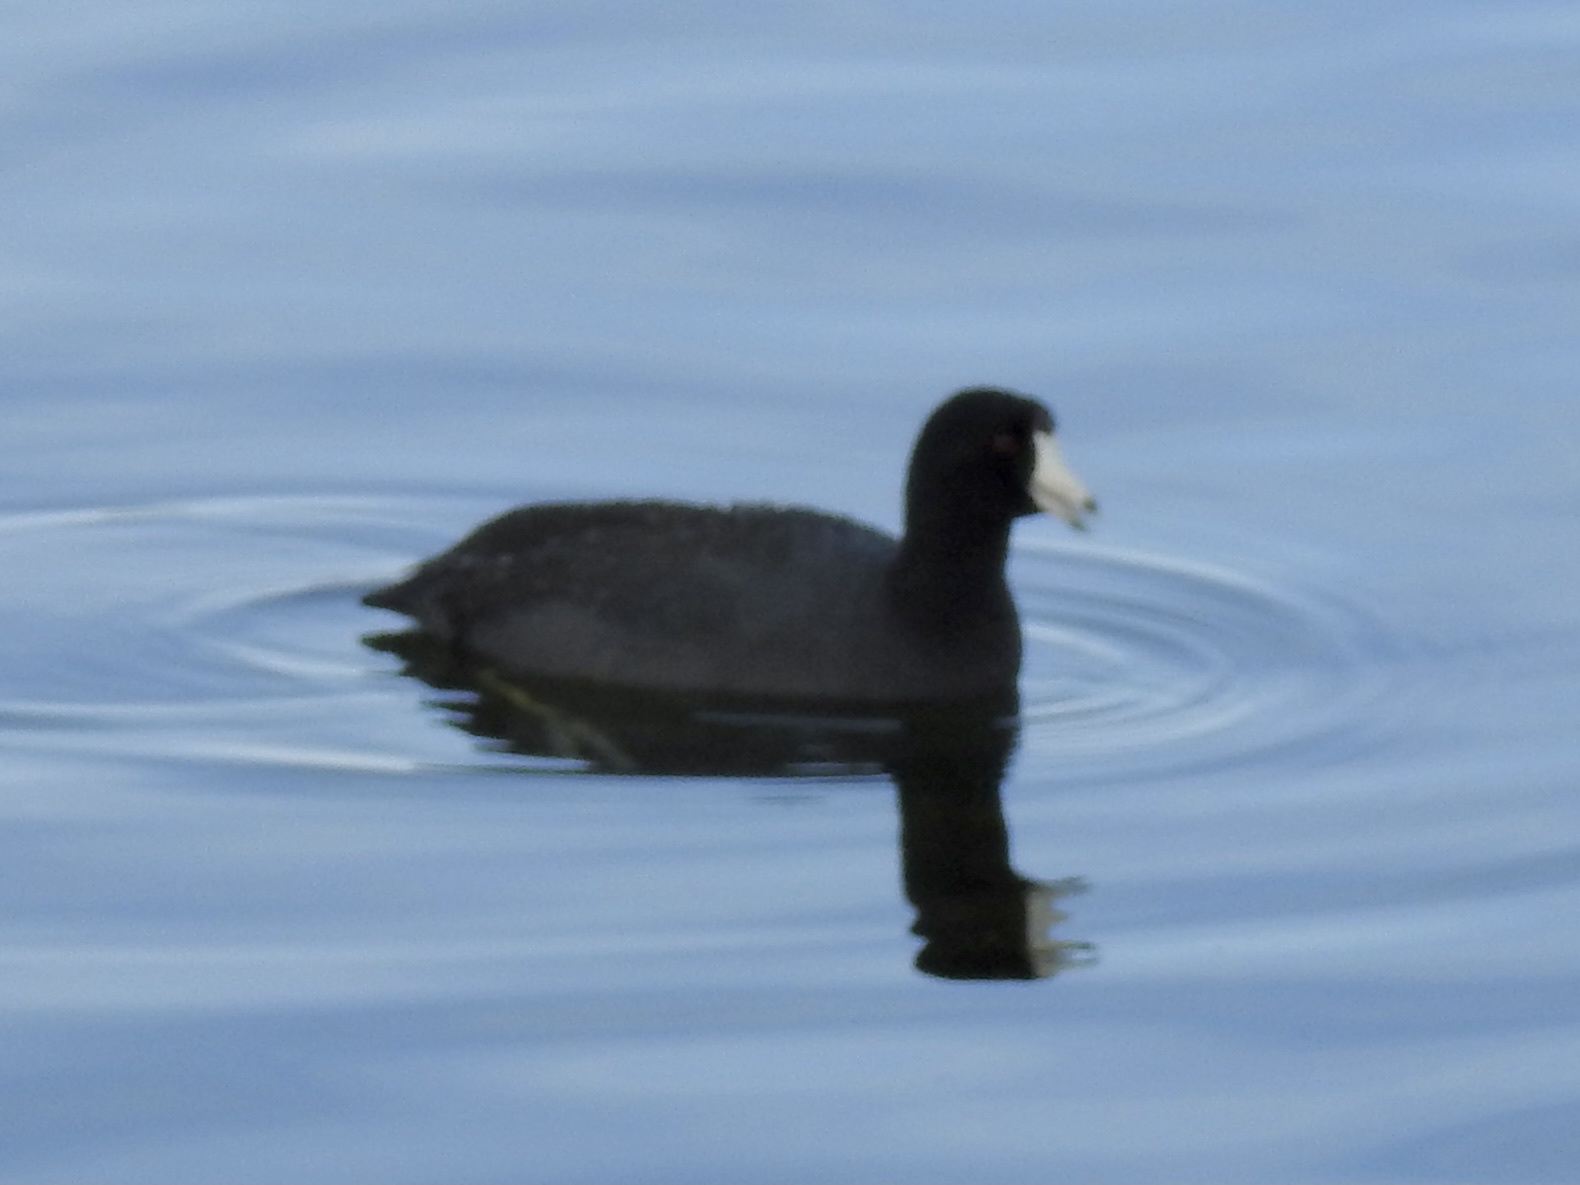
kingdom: Animalia
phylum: Chordata
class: Aves
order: Gruiformes
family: Rallidae
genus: Fulica
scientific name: Fulica americana
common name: American coot
